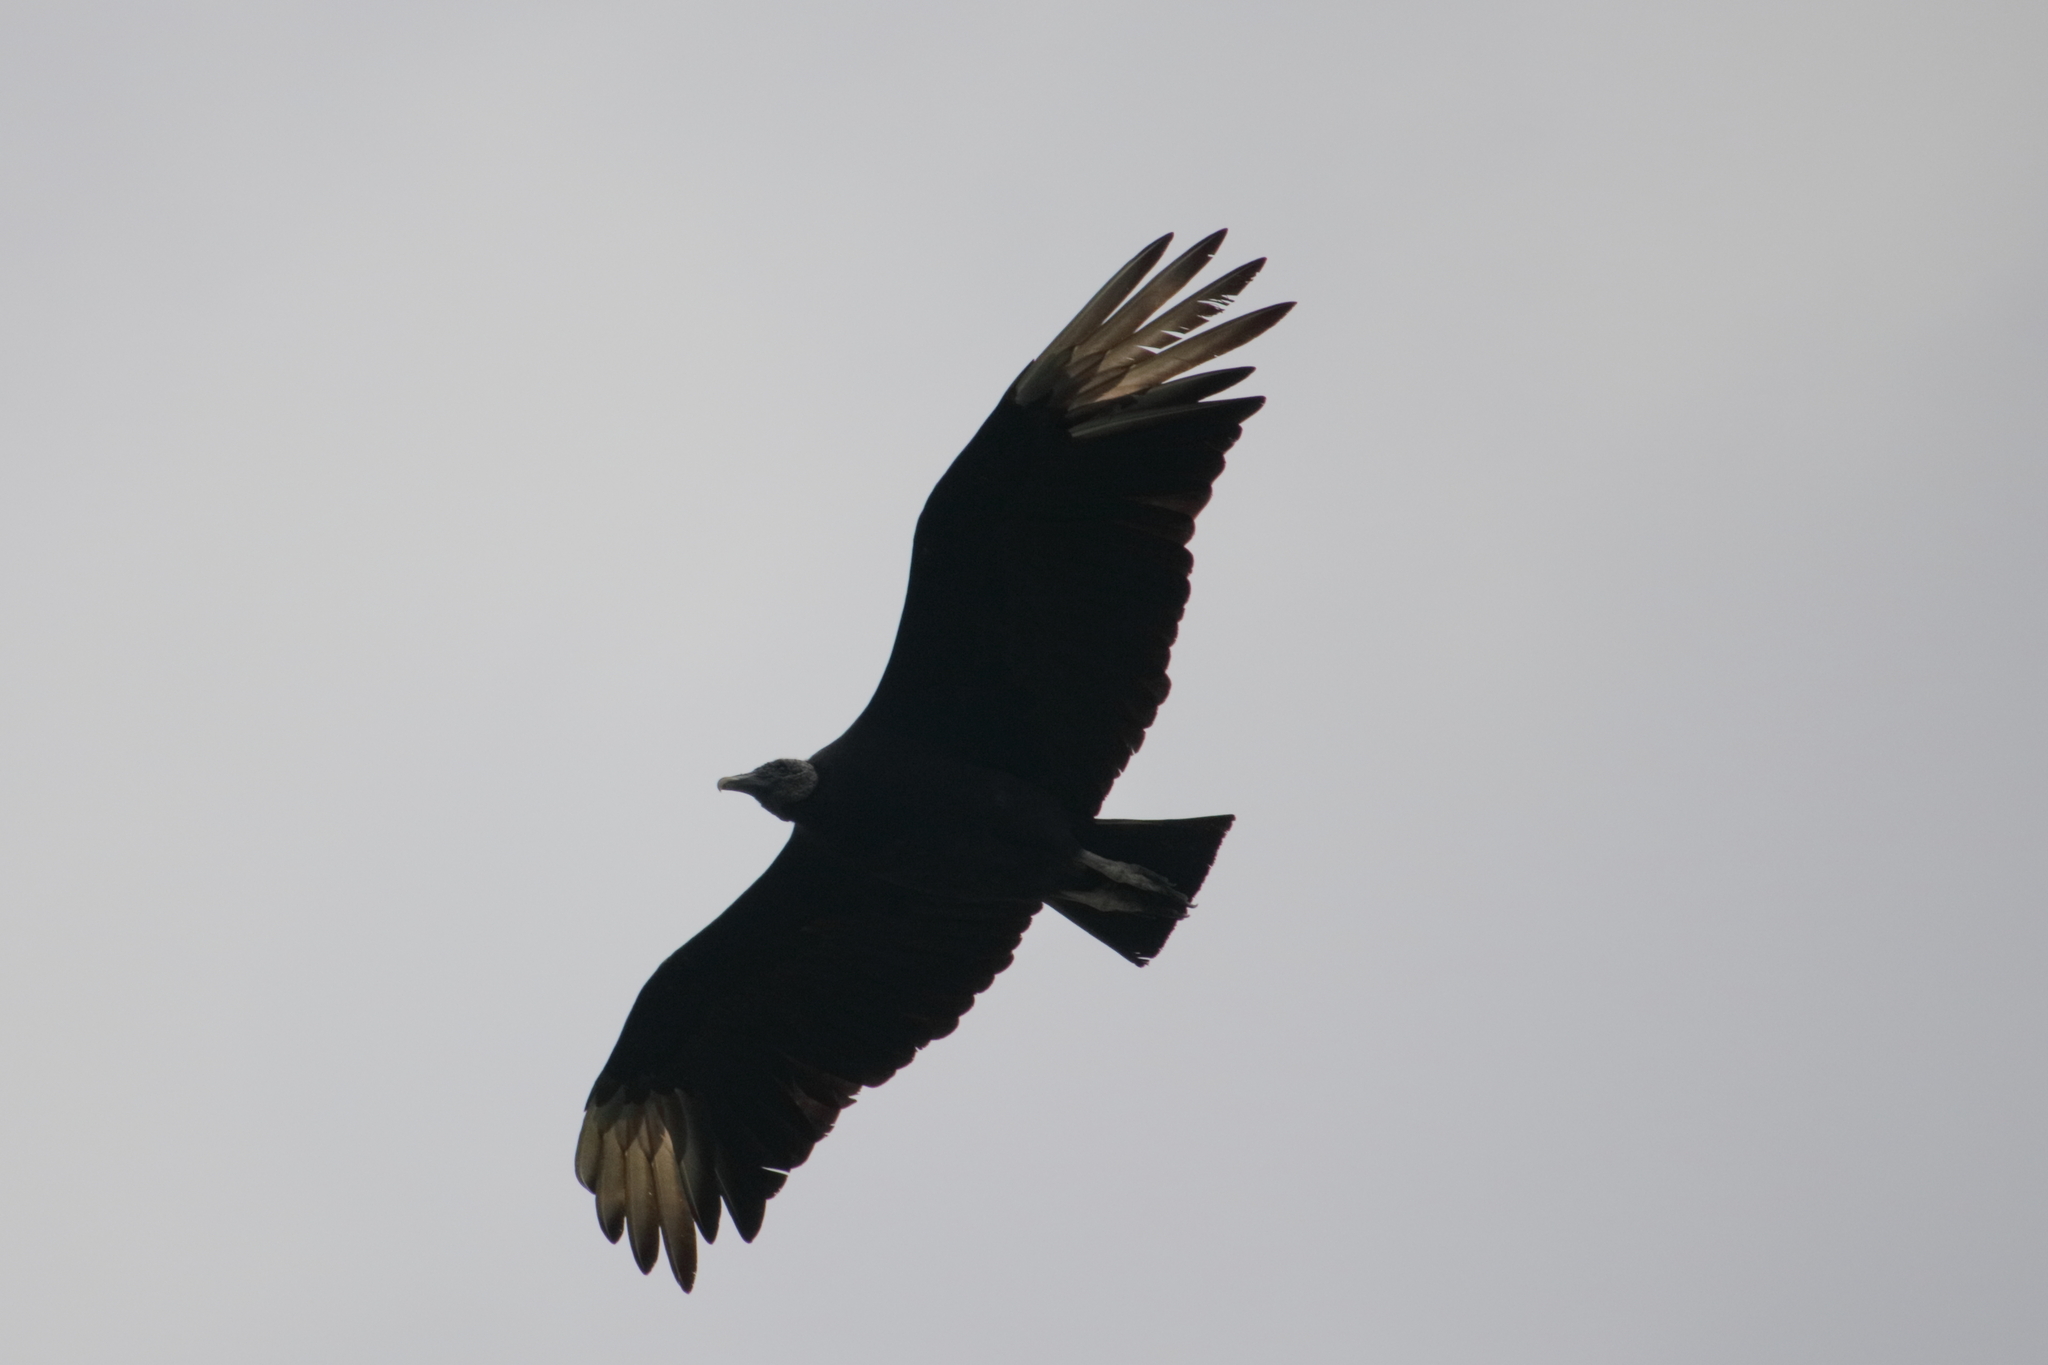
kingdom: Animalia
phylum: Chordata
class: Aves
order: Accipitriformes
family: Cathartidae
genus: Coragyps
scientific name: Coragyps atratus
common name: Black vulture
